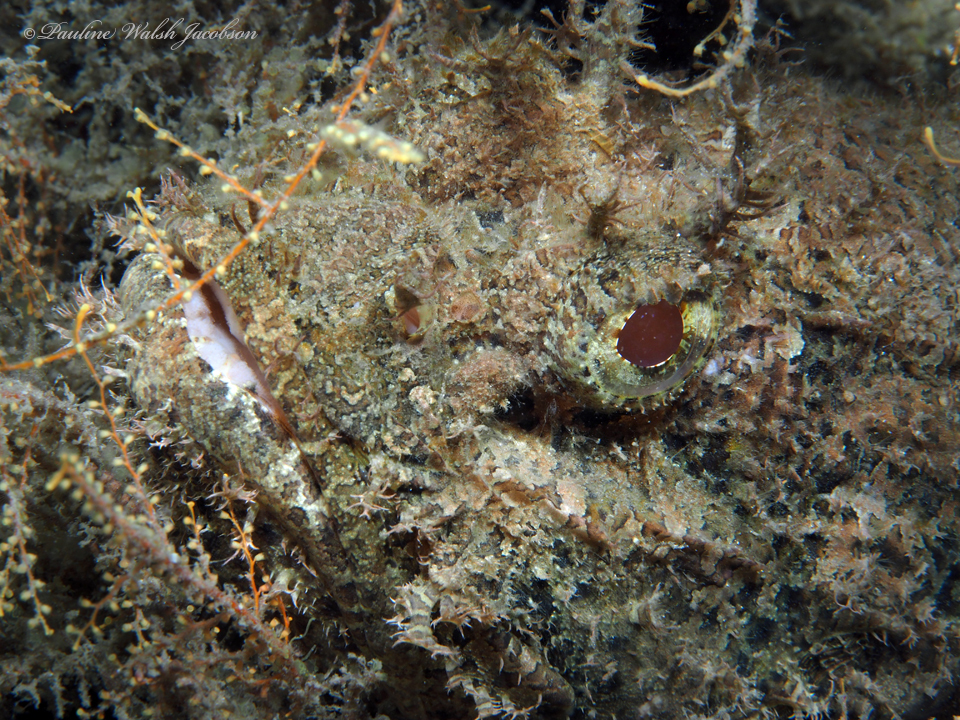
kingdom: Animalia
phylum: Chordata
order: Scorpaeniformes
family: Scorpaenidae
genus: Scorpaena
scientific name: Scorpaena plumieri
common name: Spotted scorpionfish
